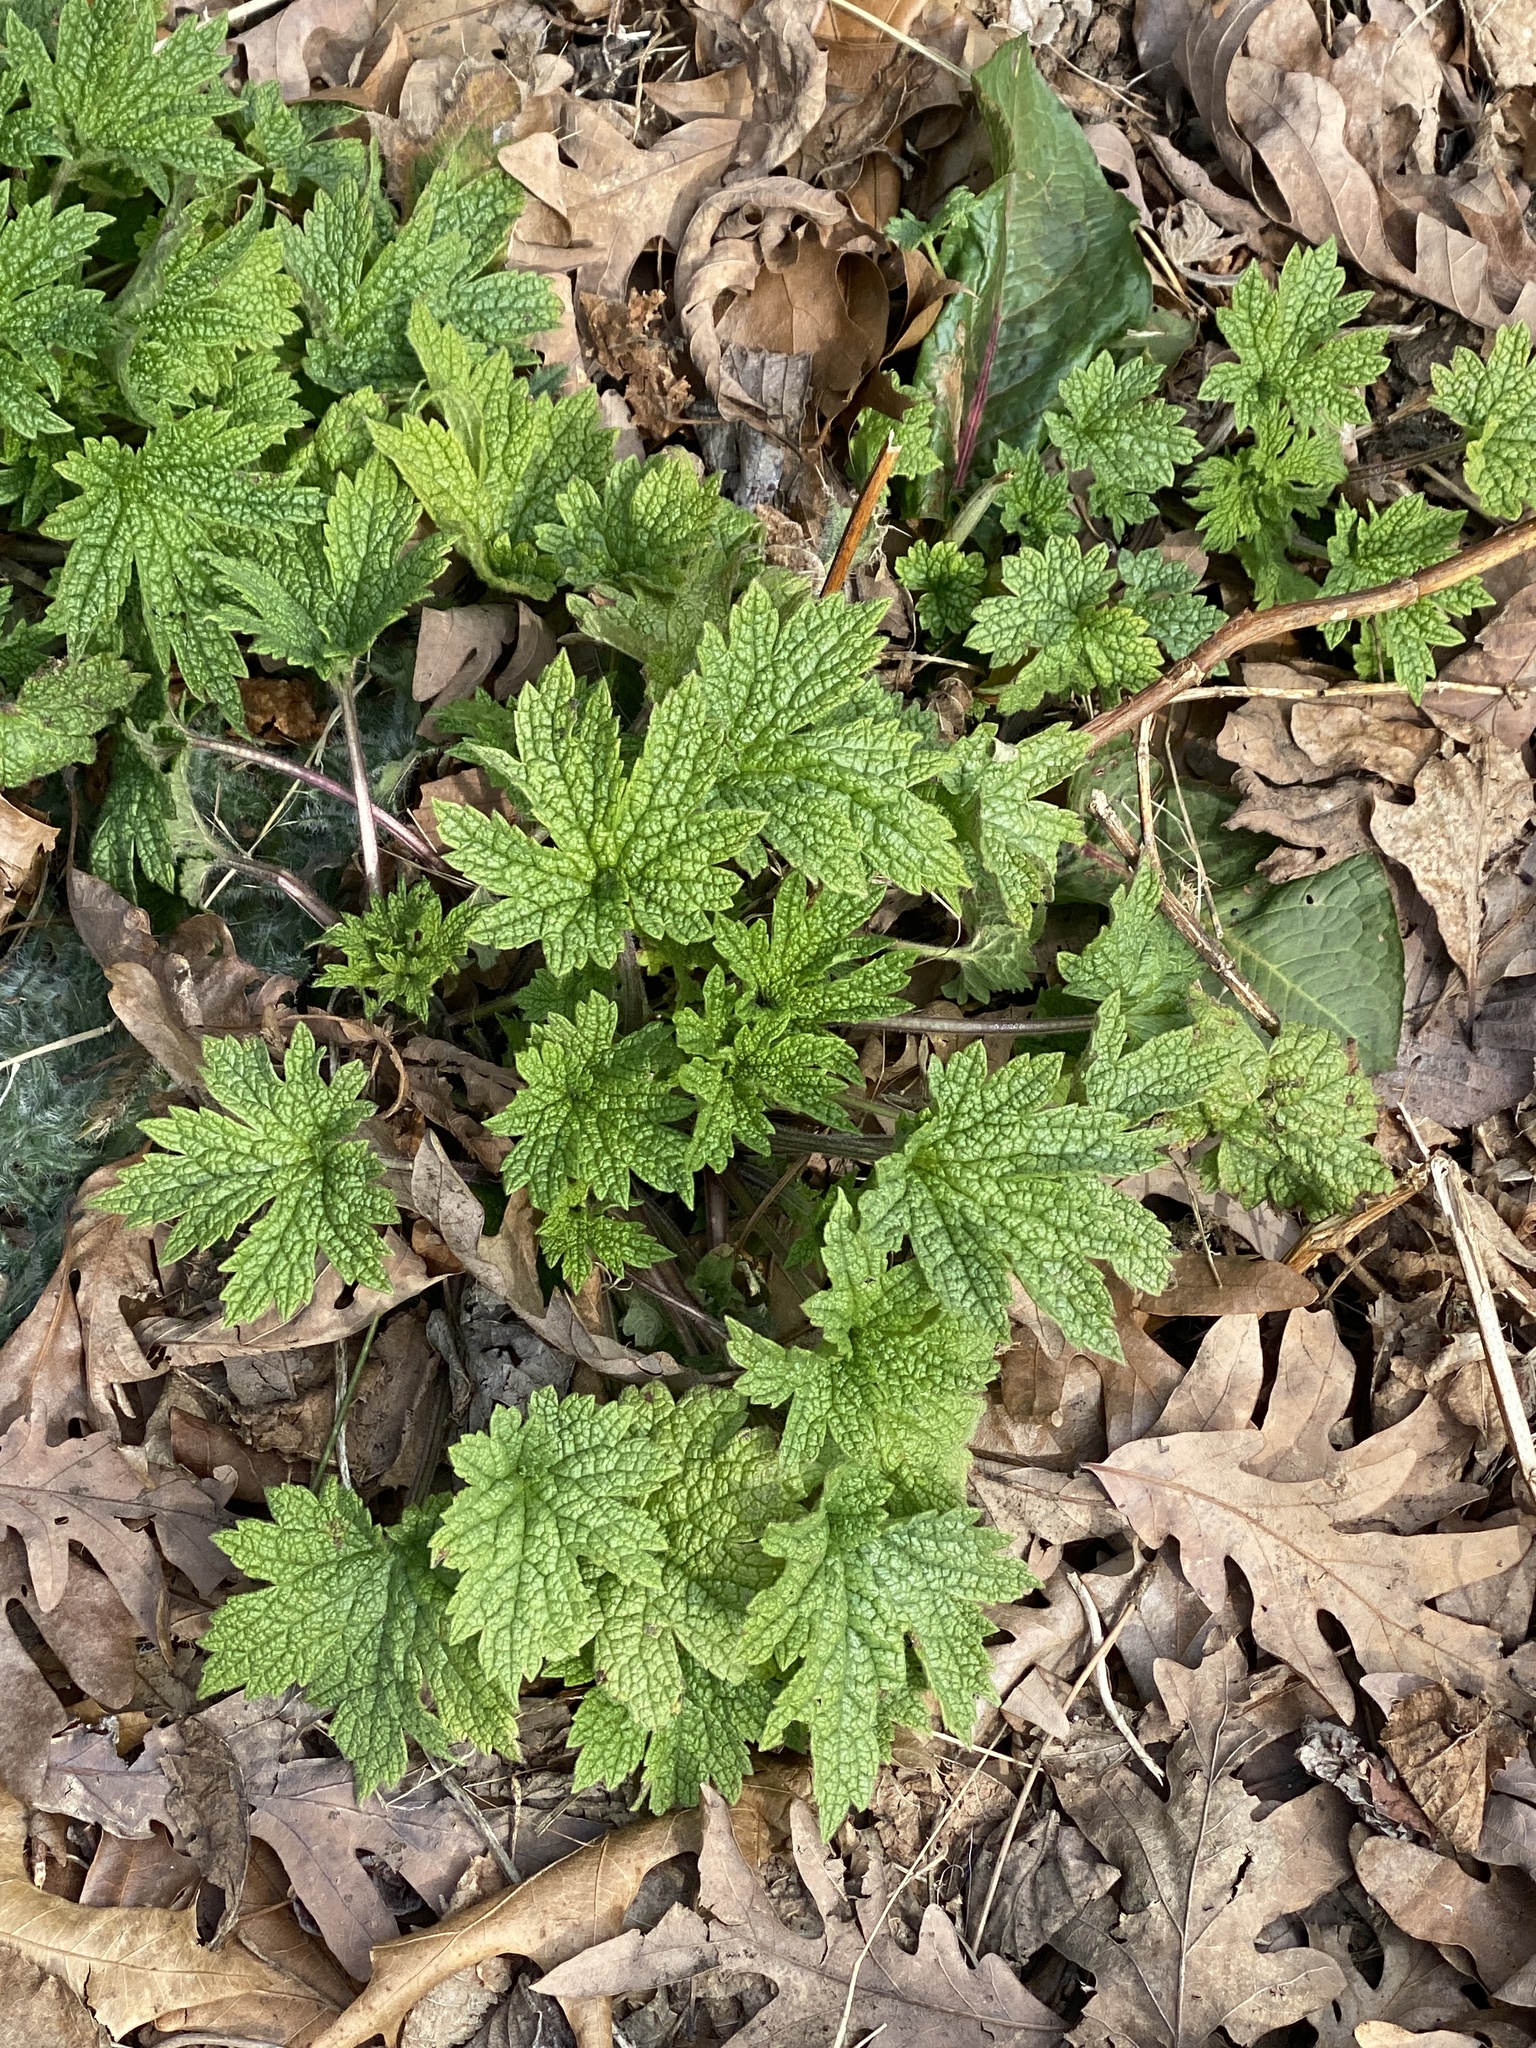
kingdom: Plantae
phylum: Tracheophyta
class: Magnoliopsida
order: Lamiales
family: Lamiaceae
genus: Leonurus
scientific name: Leonurus cardiaca
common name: Motherwort
